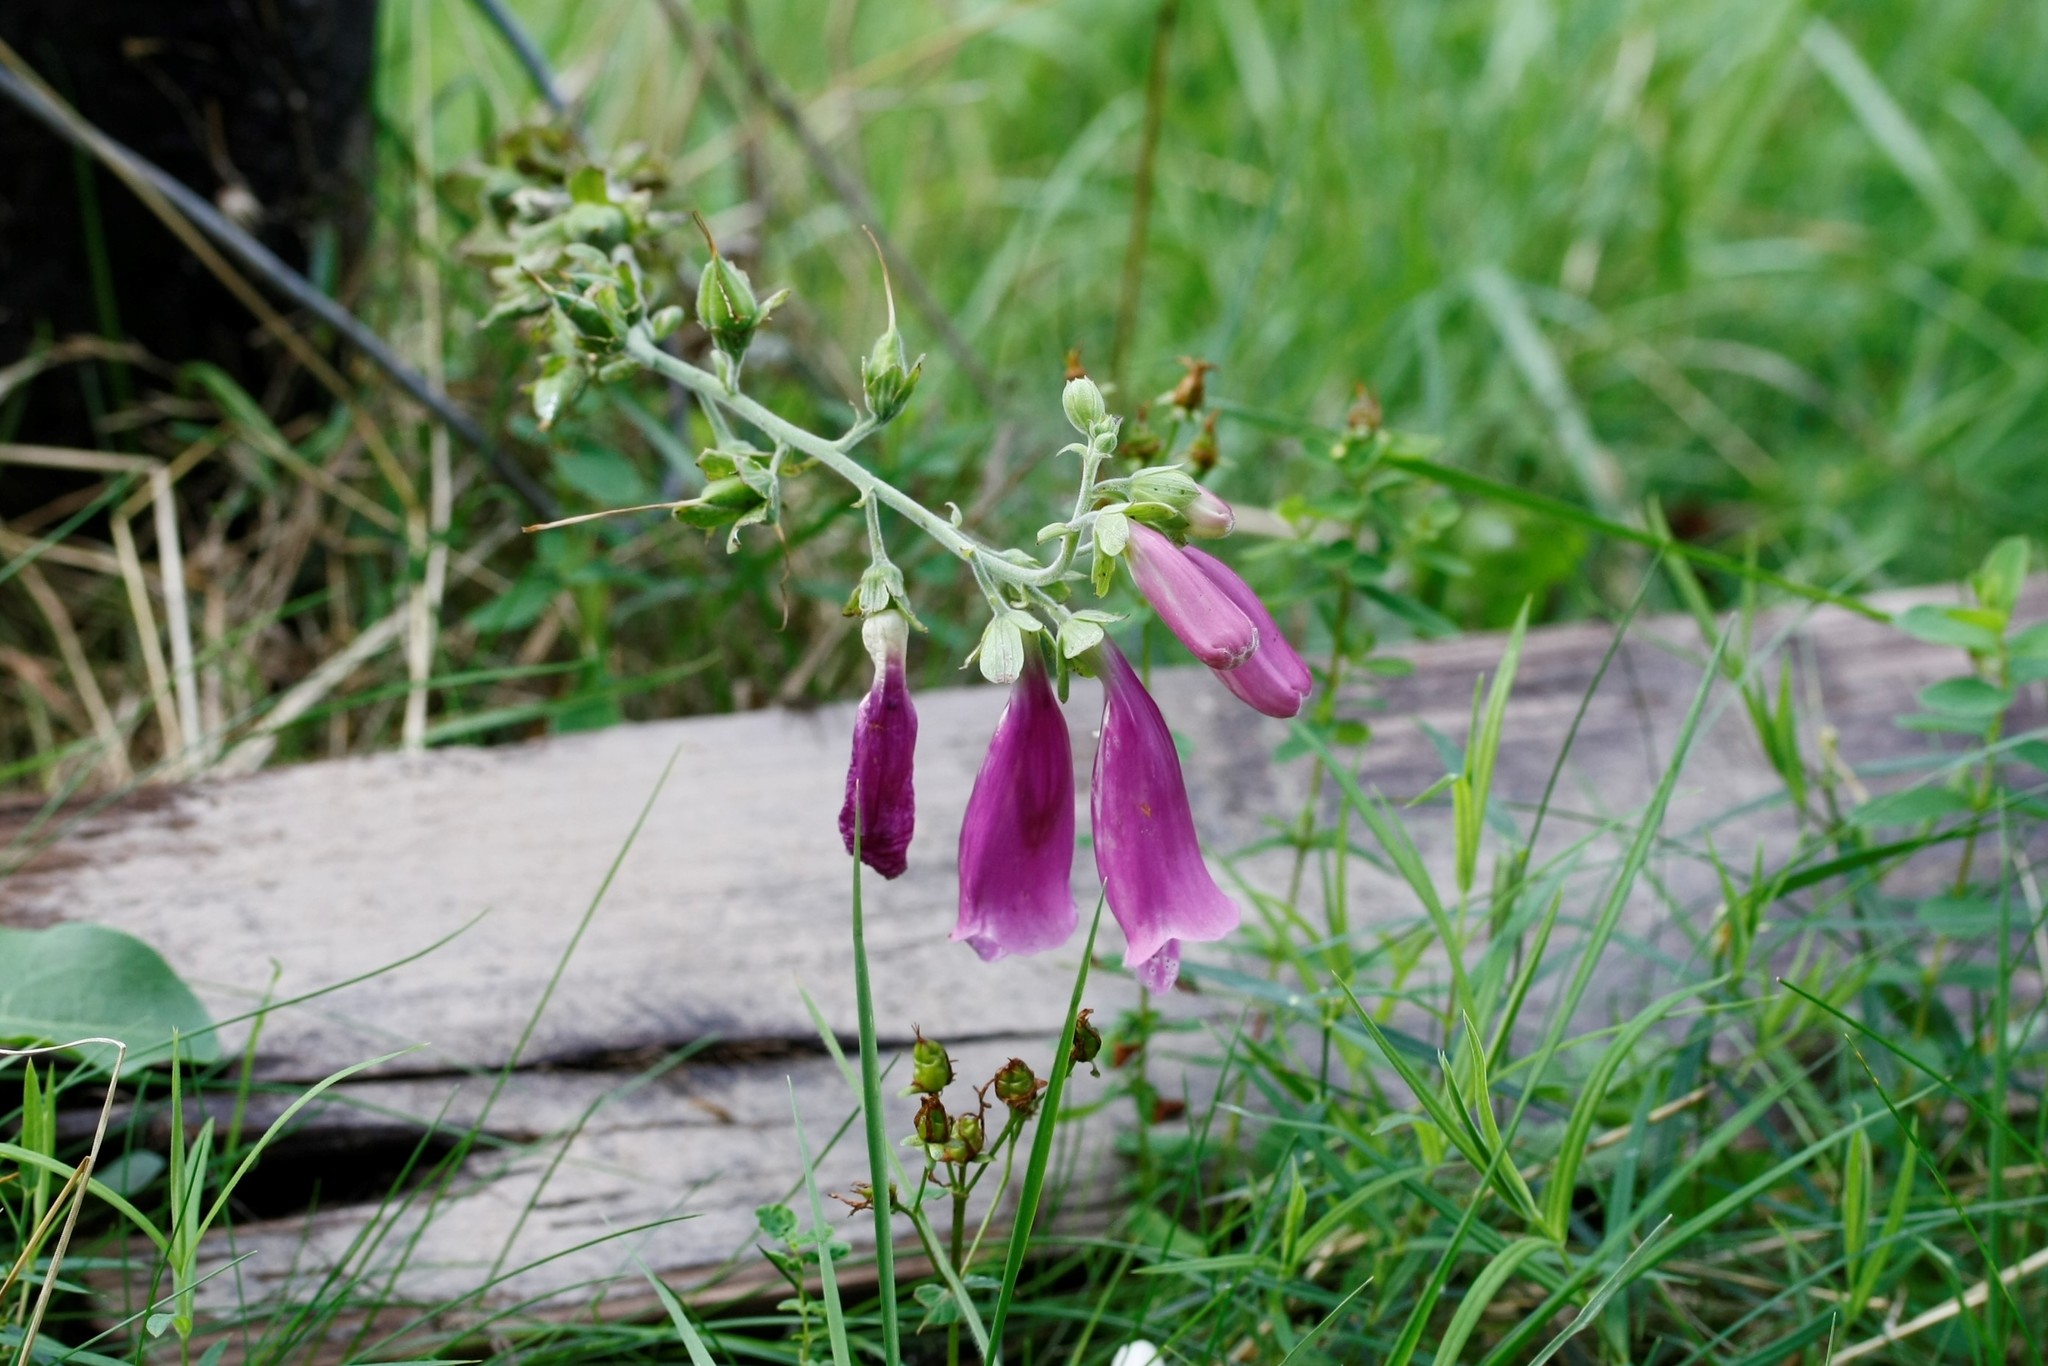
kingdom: Plantae
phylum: Tracheophyta
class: Magnoliopsida
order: Lamiales
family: Plantaginaceae
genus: Digitalis
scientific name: Digitalis purpurea
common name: Foxglove
